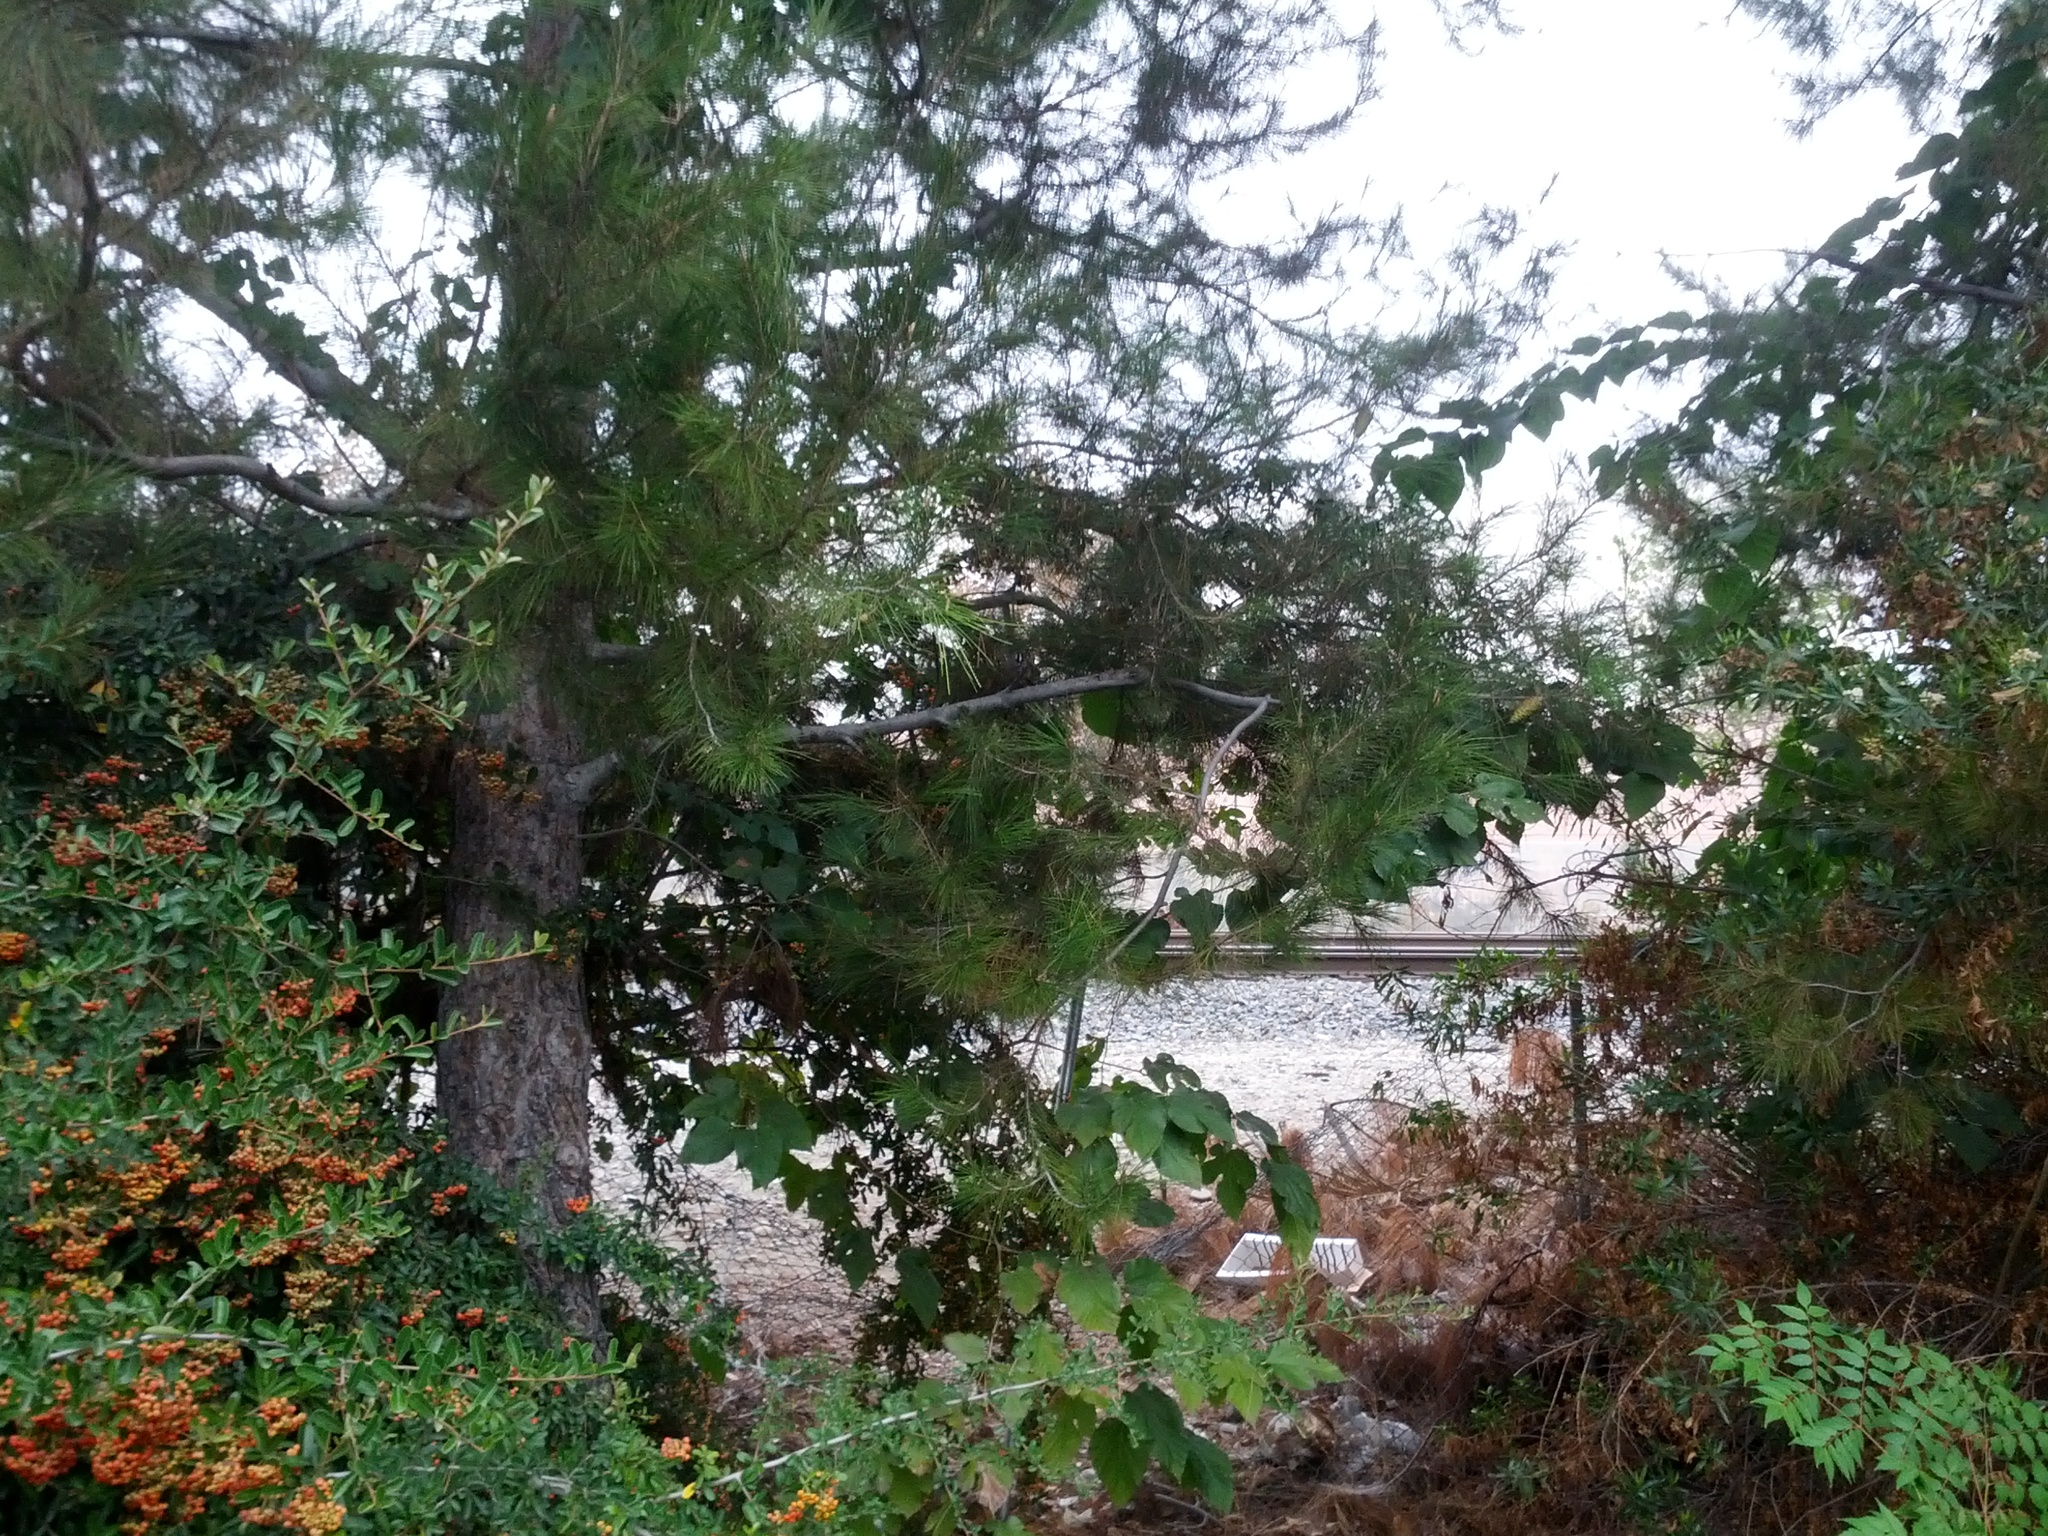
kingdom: Animalia
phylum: Chordata
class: Aves
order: Passeriformes
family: Passerellidae
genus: Zonotrichia
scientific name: Zonotrichia leucophrys
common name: White-crowned sparrow
